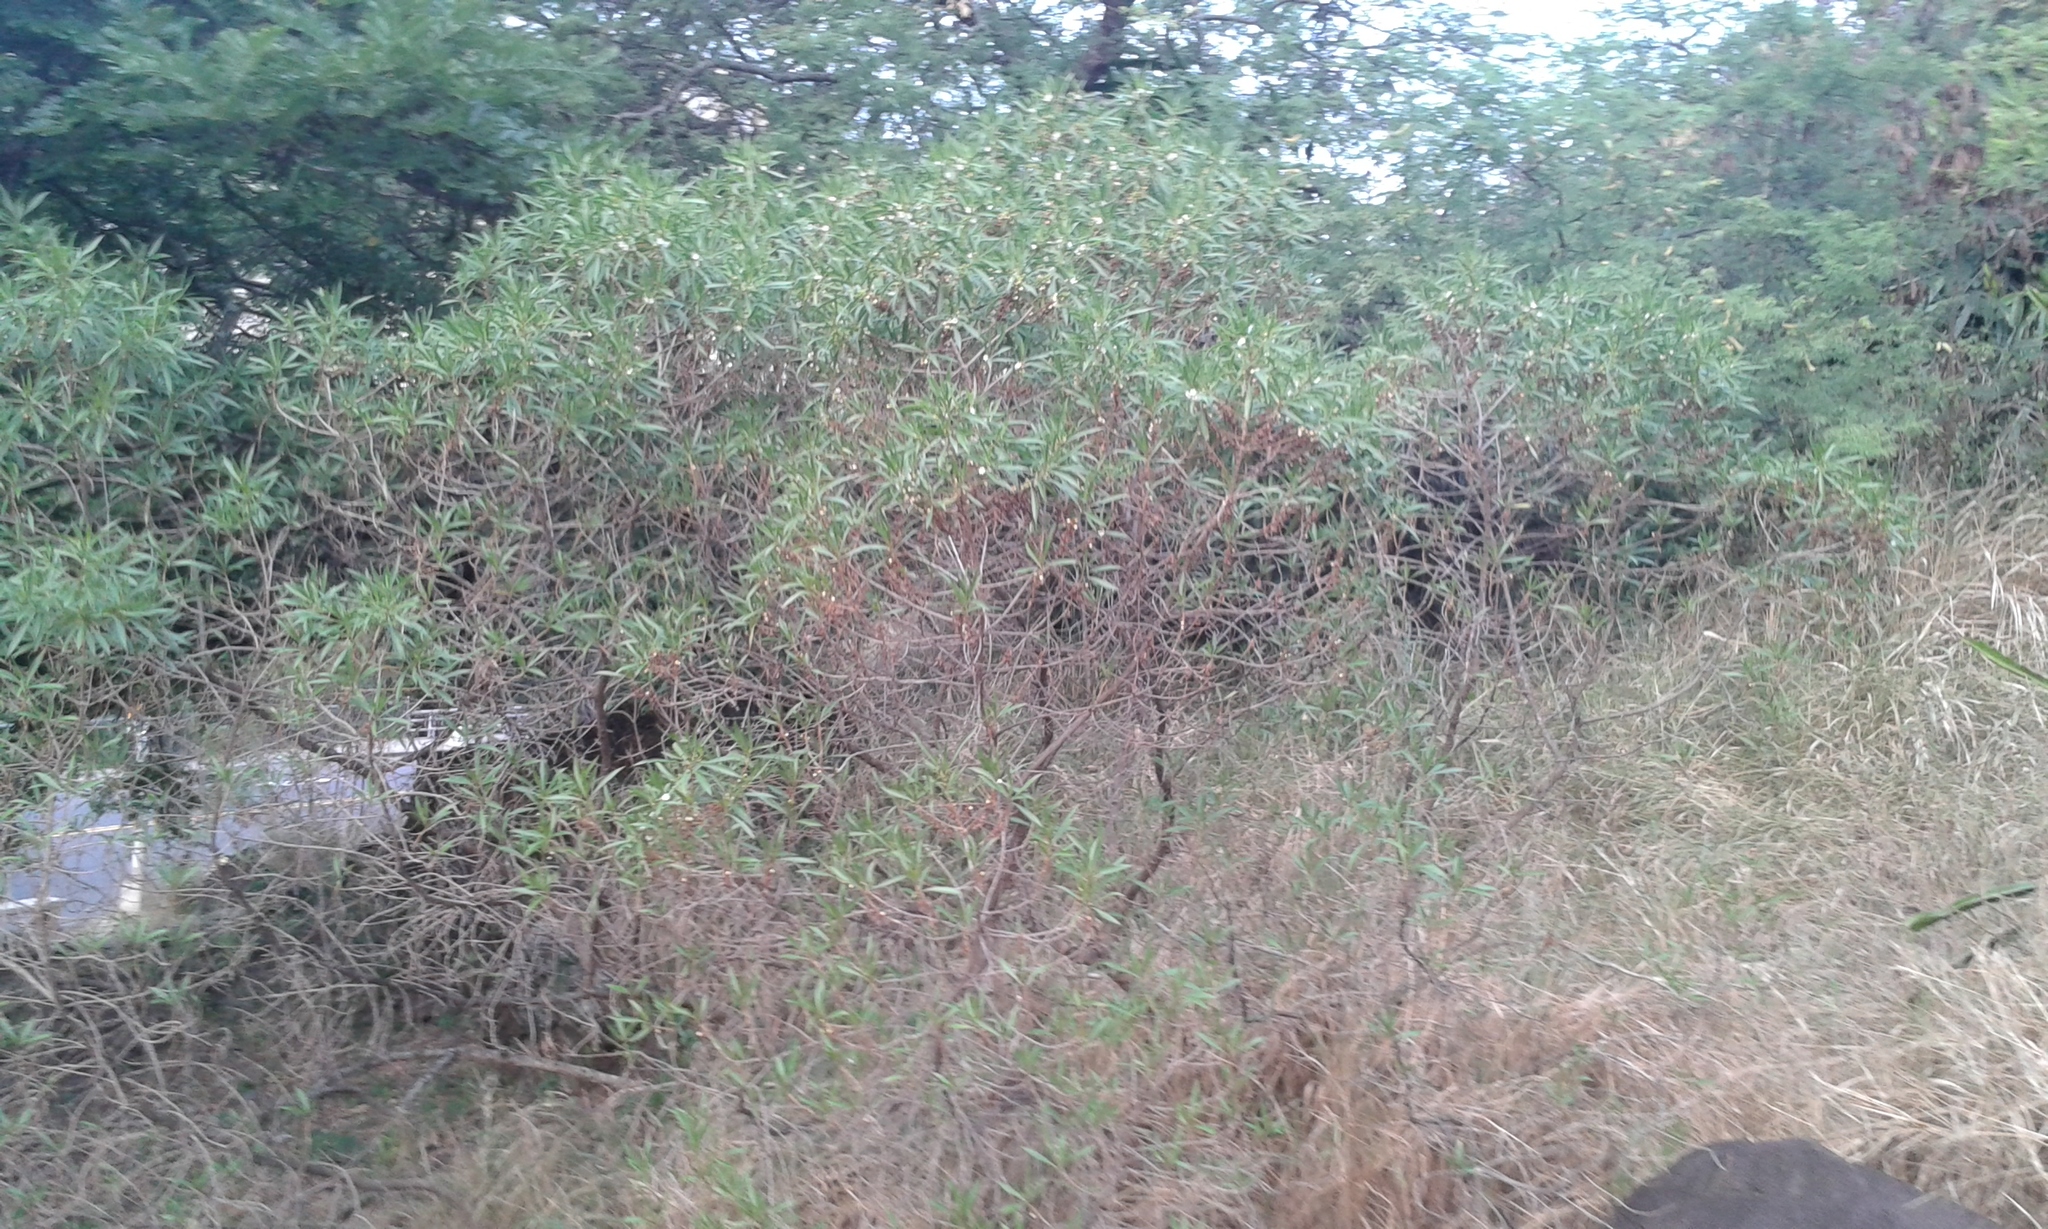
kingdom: Plantae
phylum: Tracheophyta
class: Magnoliopsida
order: Lamiales
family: Scrophulariaceae
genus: Myoporum
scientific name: Myoporum sandwicense
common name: Bastard-sandalwood
